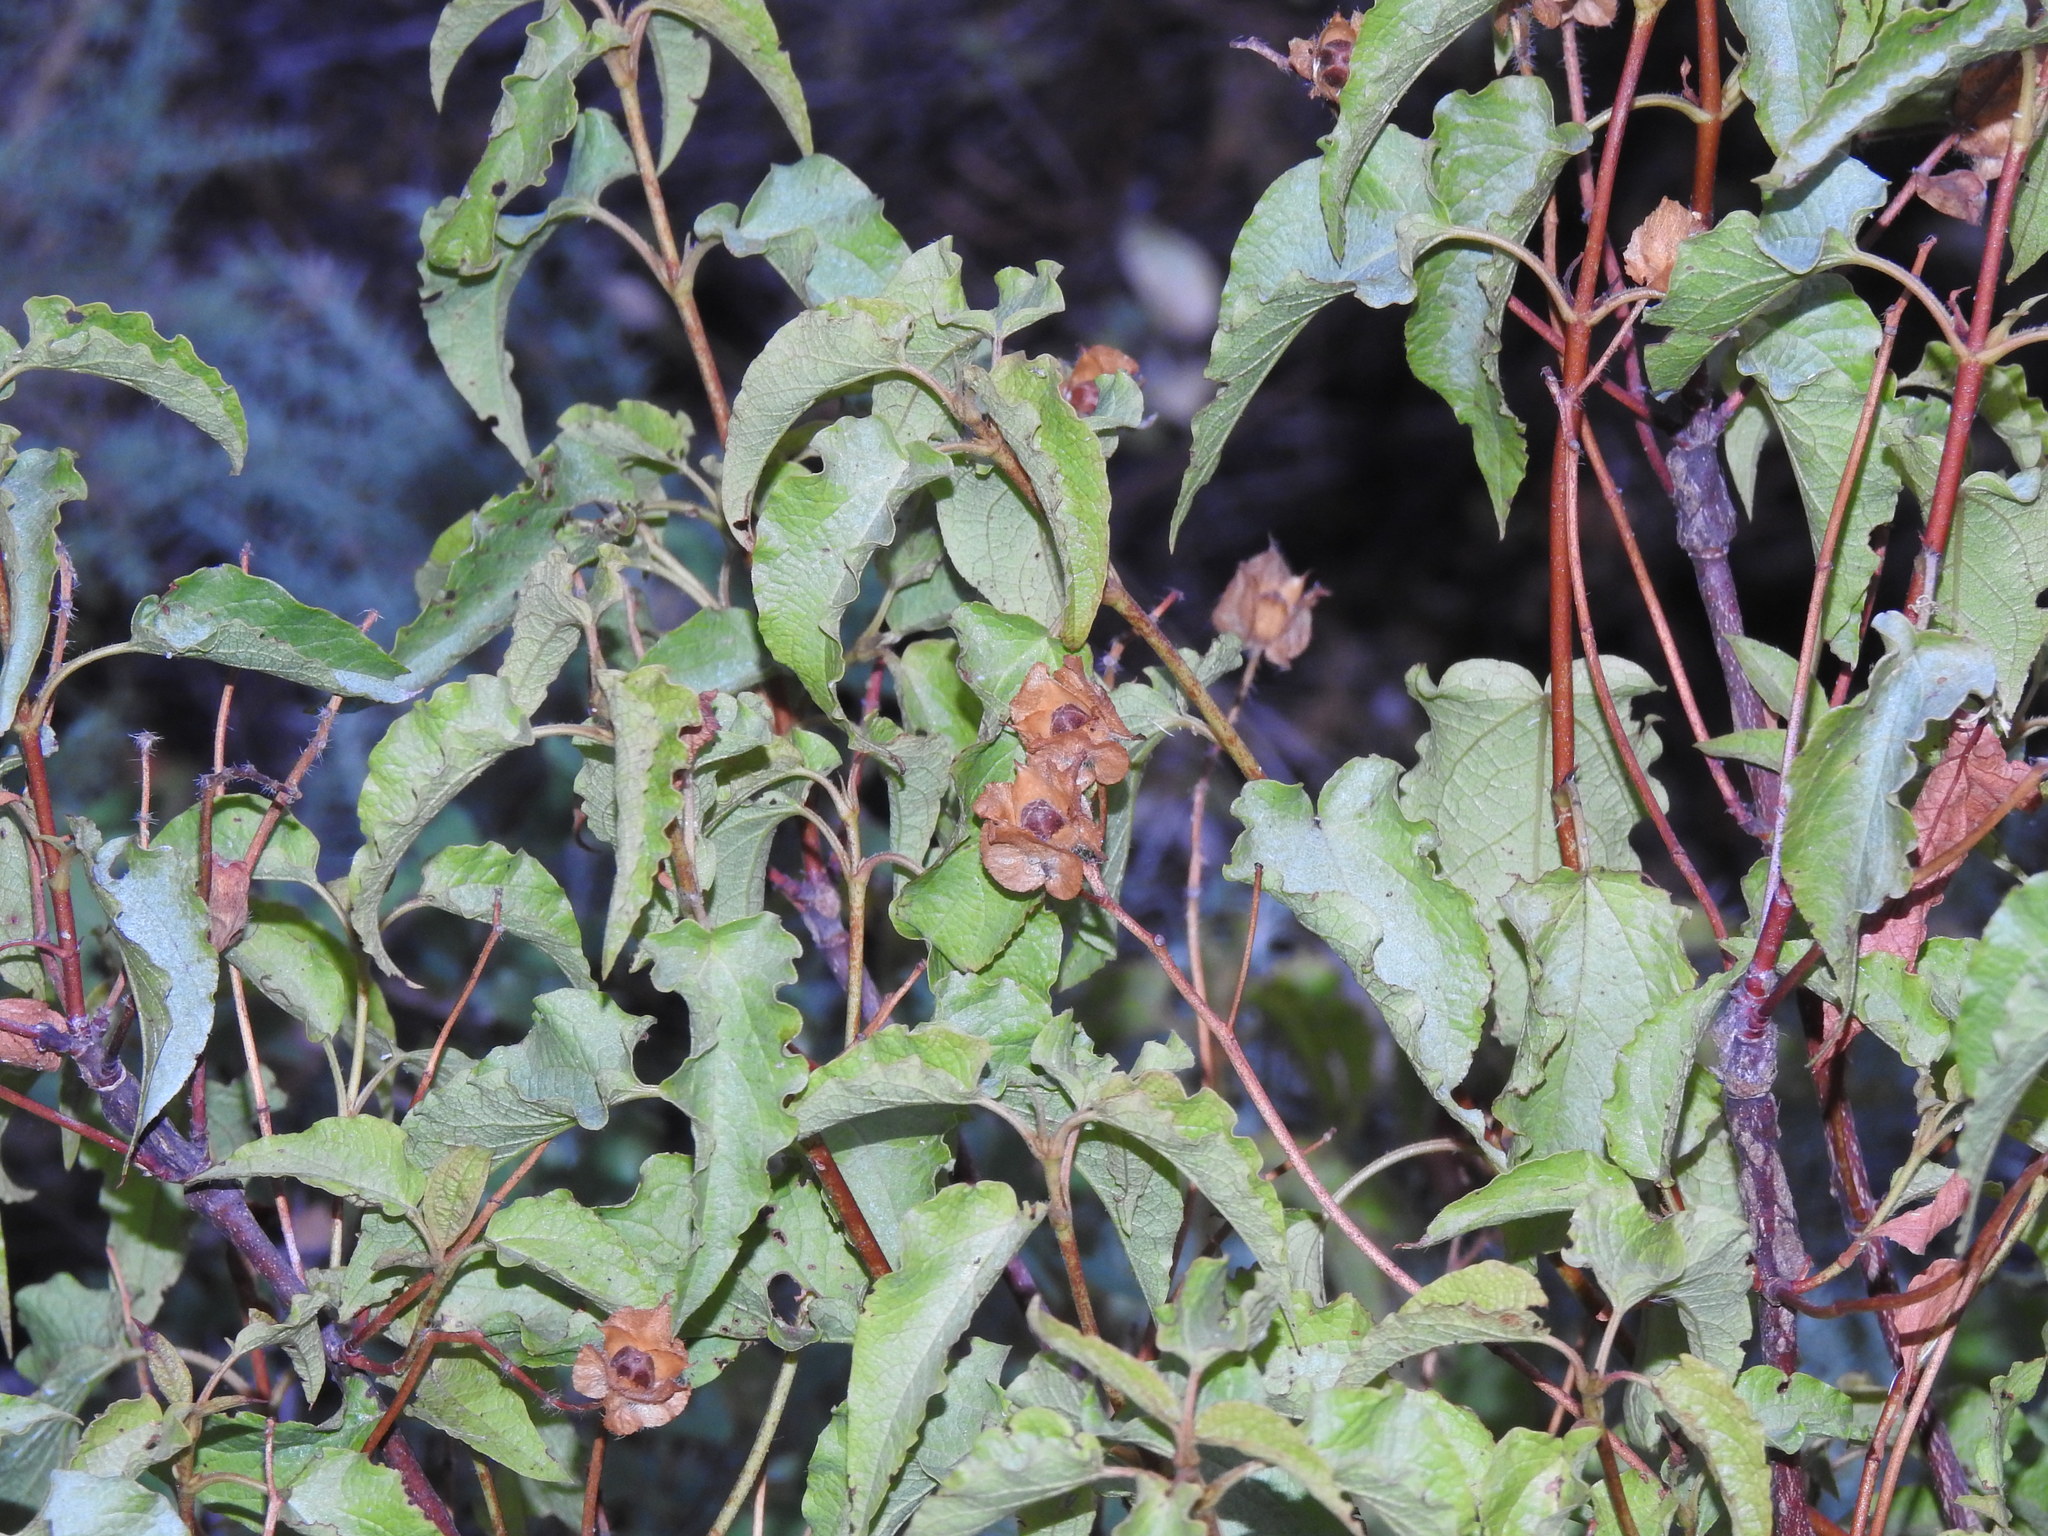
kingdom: Plantae
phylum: Tracheophyta
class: Magnoliopsida
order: Malvales
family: Cistaceae
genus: Cistus
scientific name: Cistus populifolius
